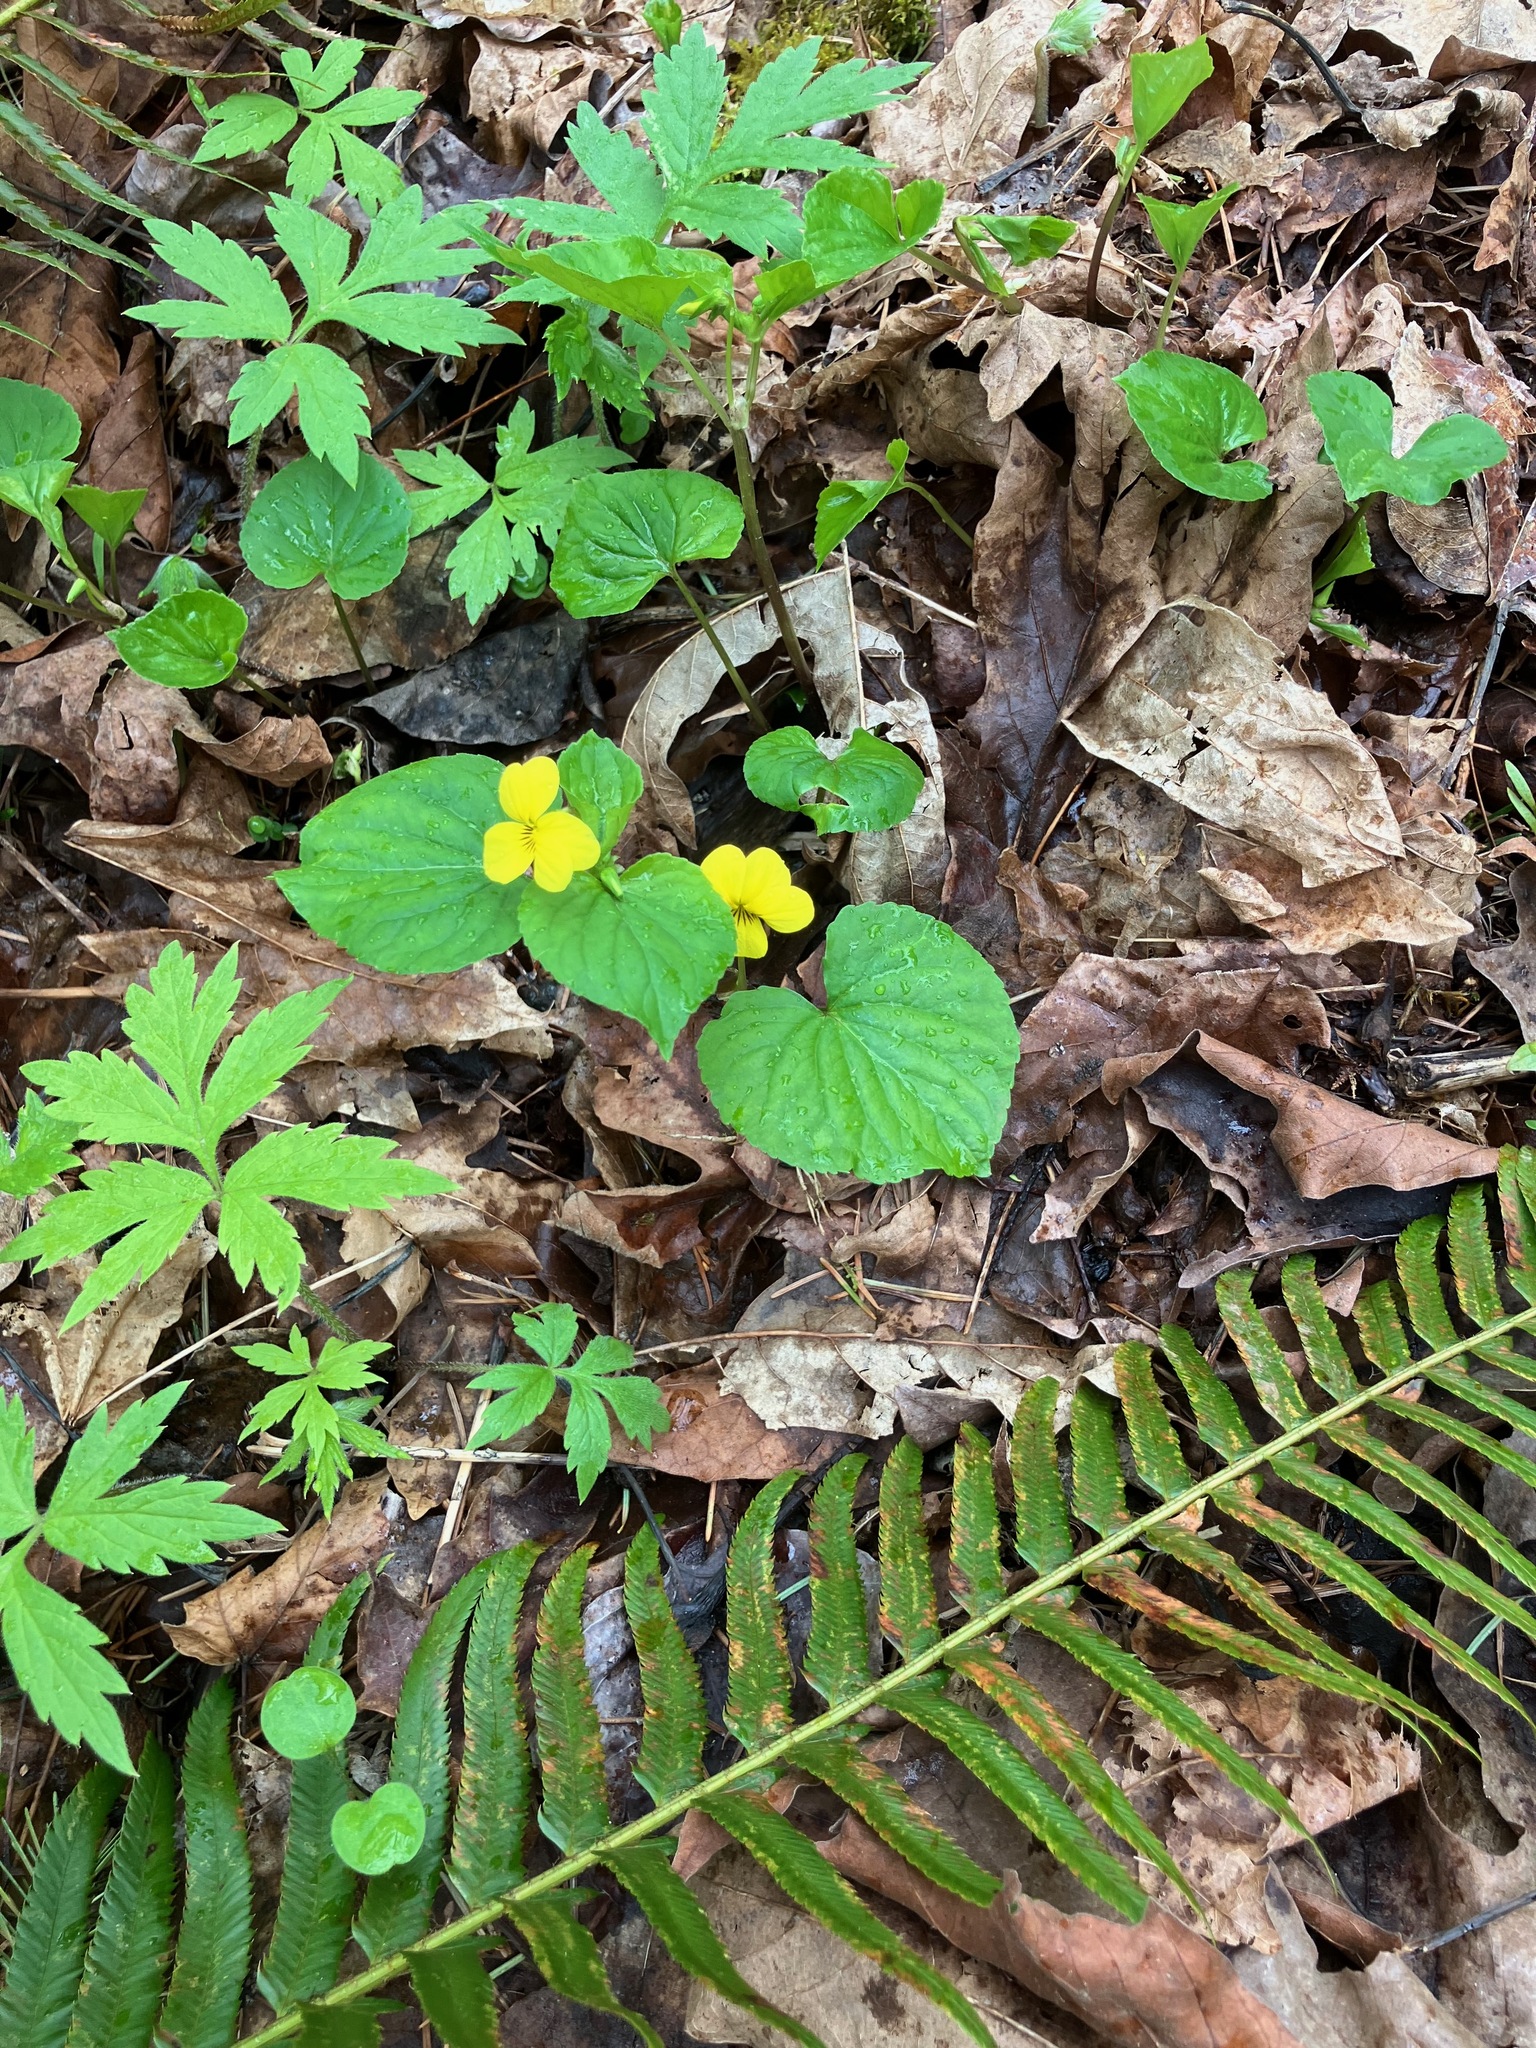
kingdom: Plantae
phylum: Tracheophyta
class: Magnoliopsida
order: Malpighiales
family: Violaceae
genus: Viola
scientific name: Viola glabella
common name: Stream violet
